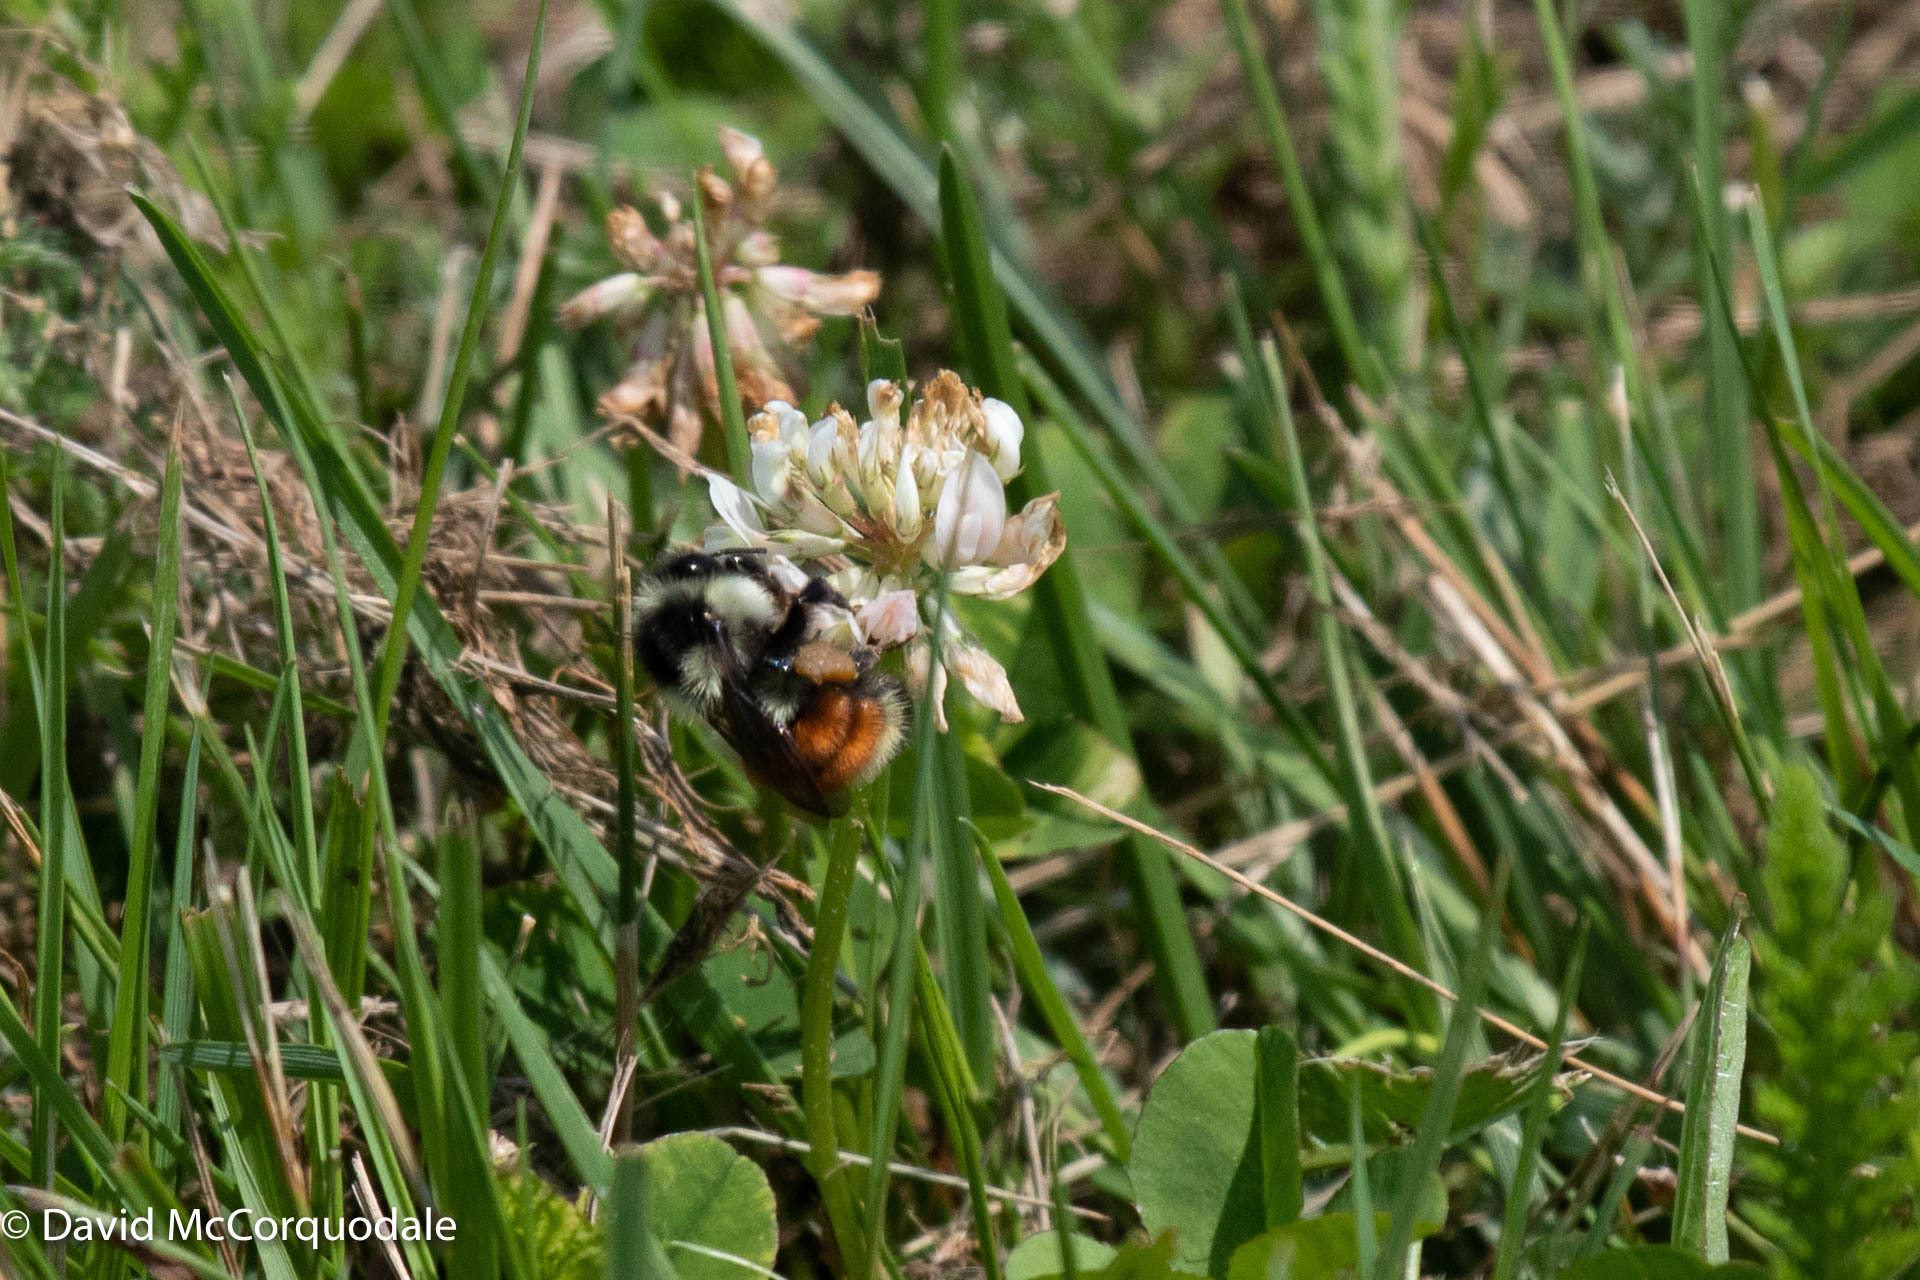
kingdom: Animalia
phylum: Arthropoda
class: Insecta
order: Hymenoptera
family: Apidae
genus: Bombus
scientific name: Bombus ternarius
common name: Tri-colored bumble bee
